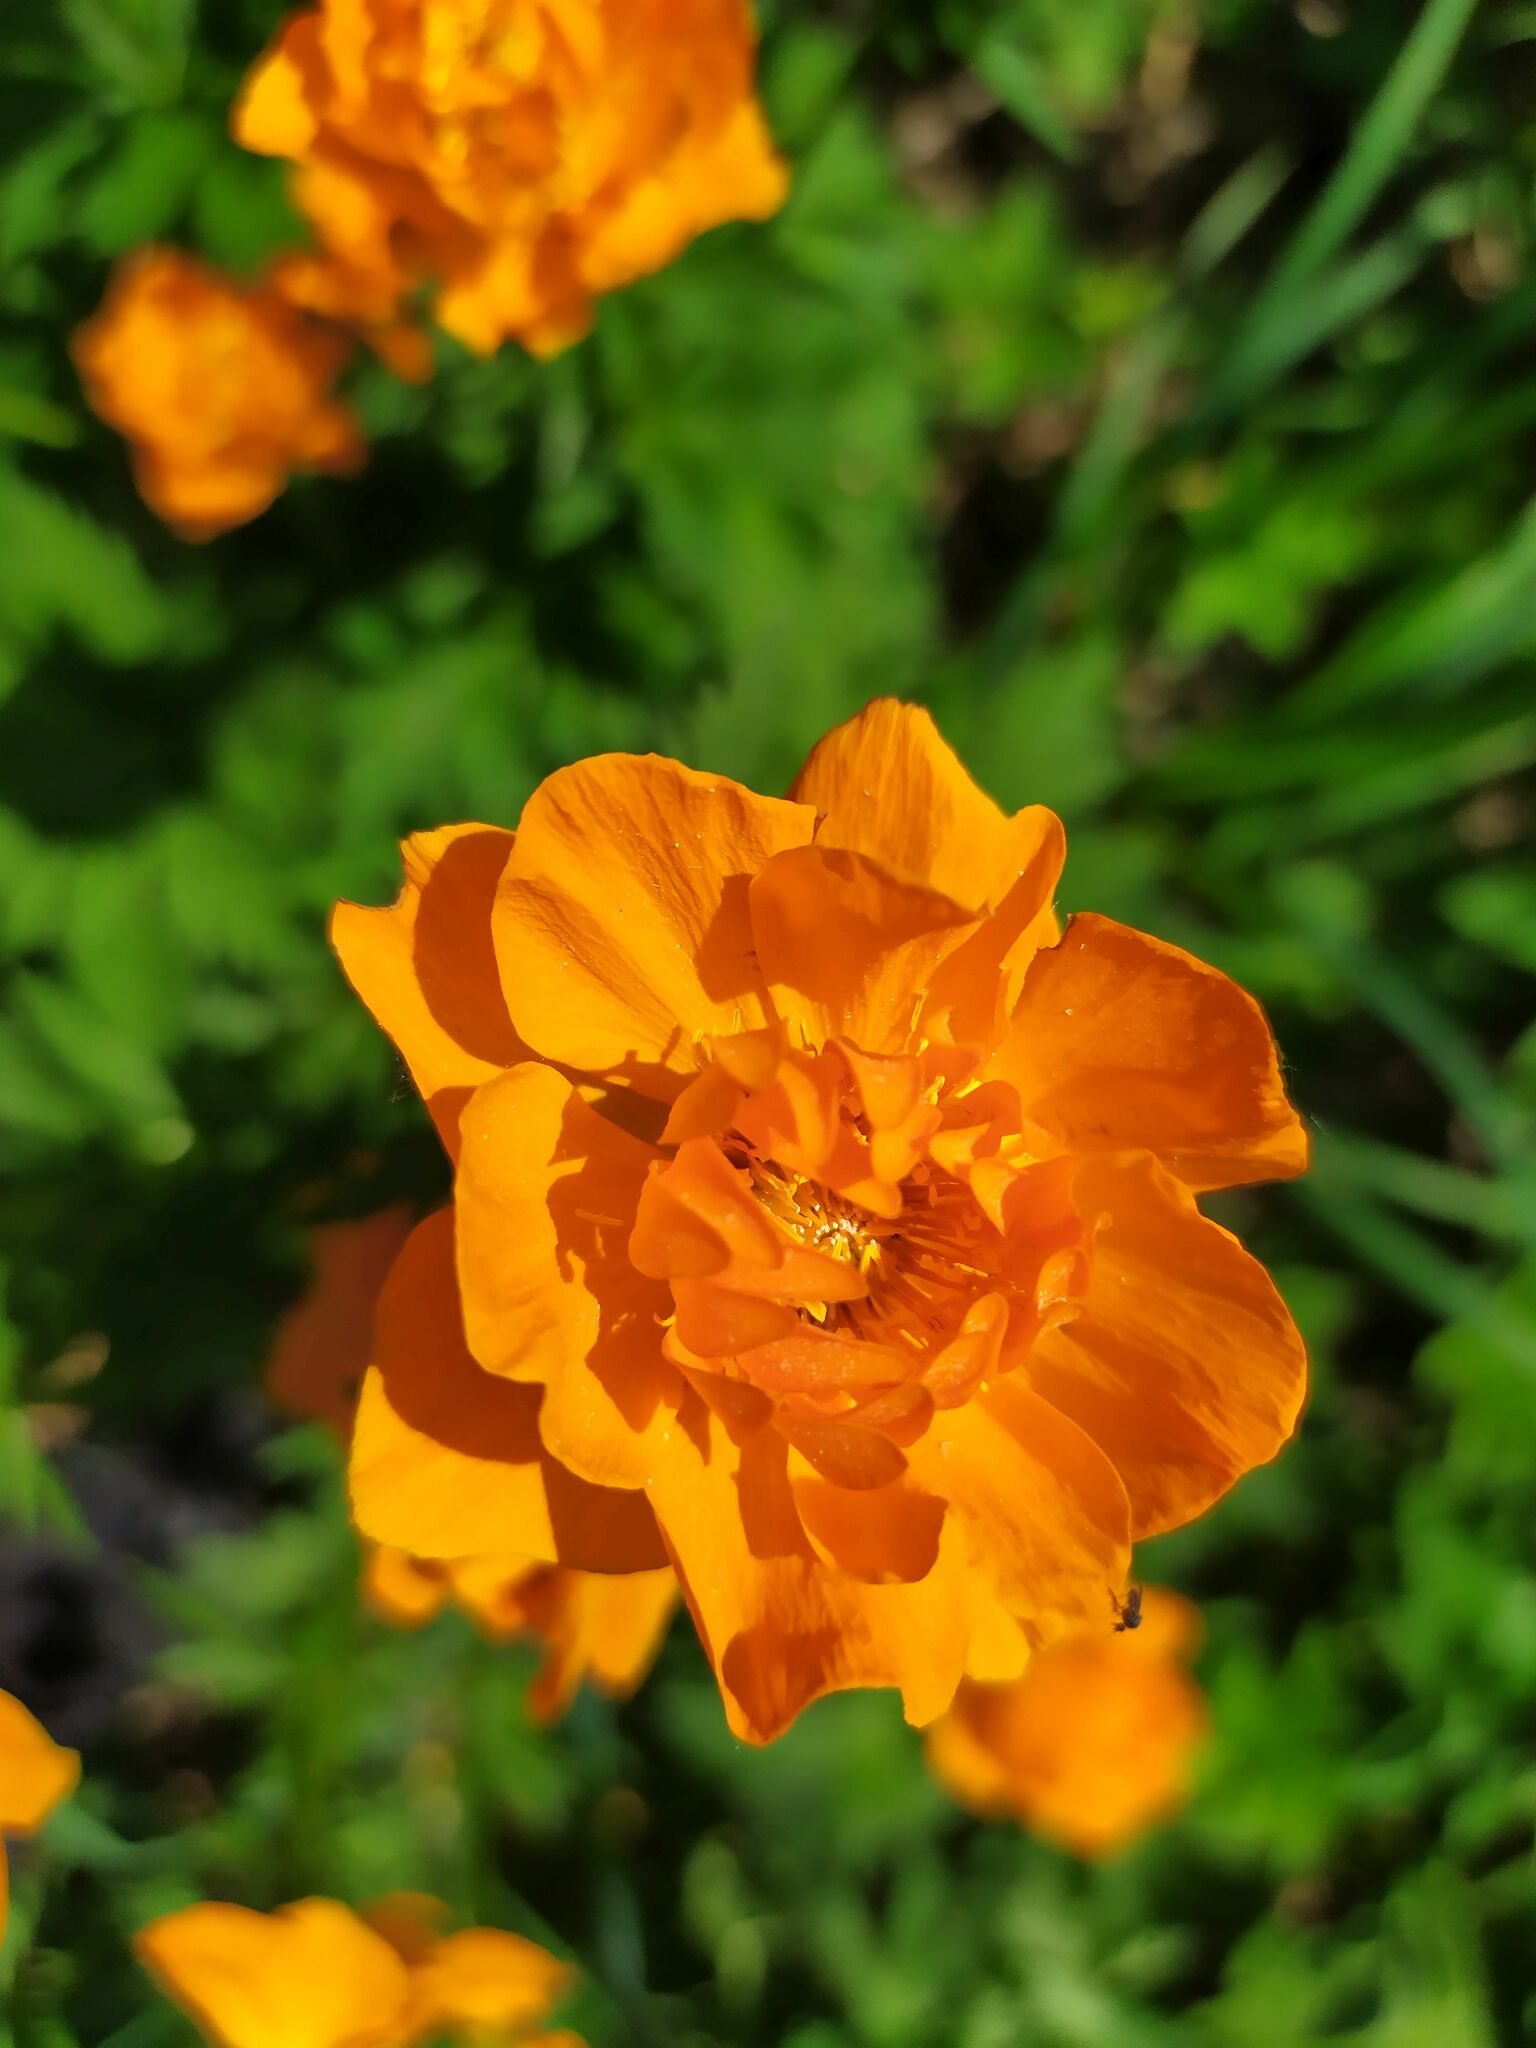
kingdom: Plantae
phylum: Tracheophyta
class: Magnoliopsida
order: Ranunculales
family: Ranunculaceae
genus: Trollius
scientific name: Trollius asiaticus
